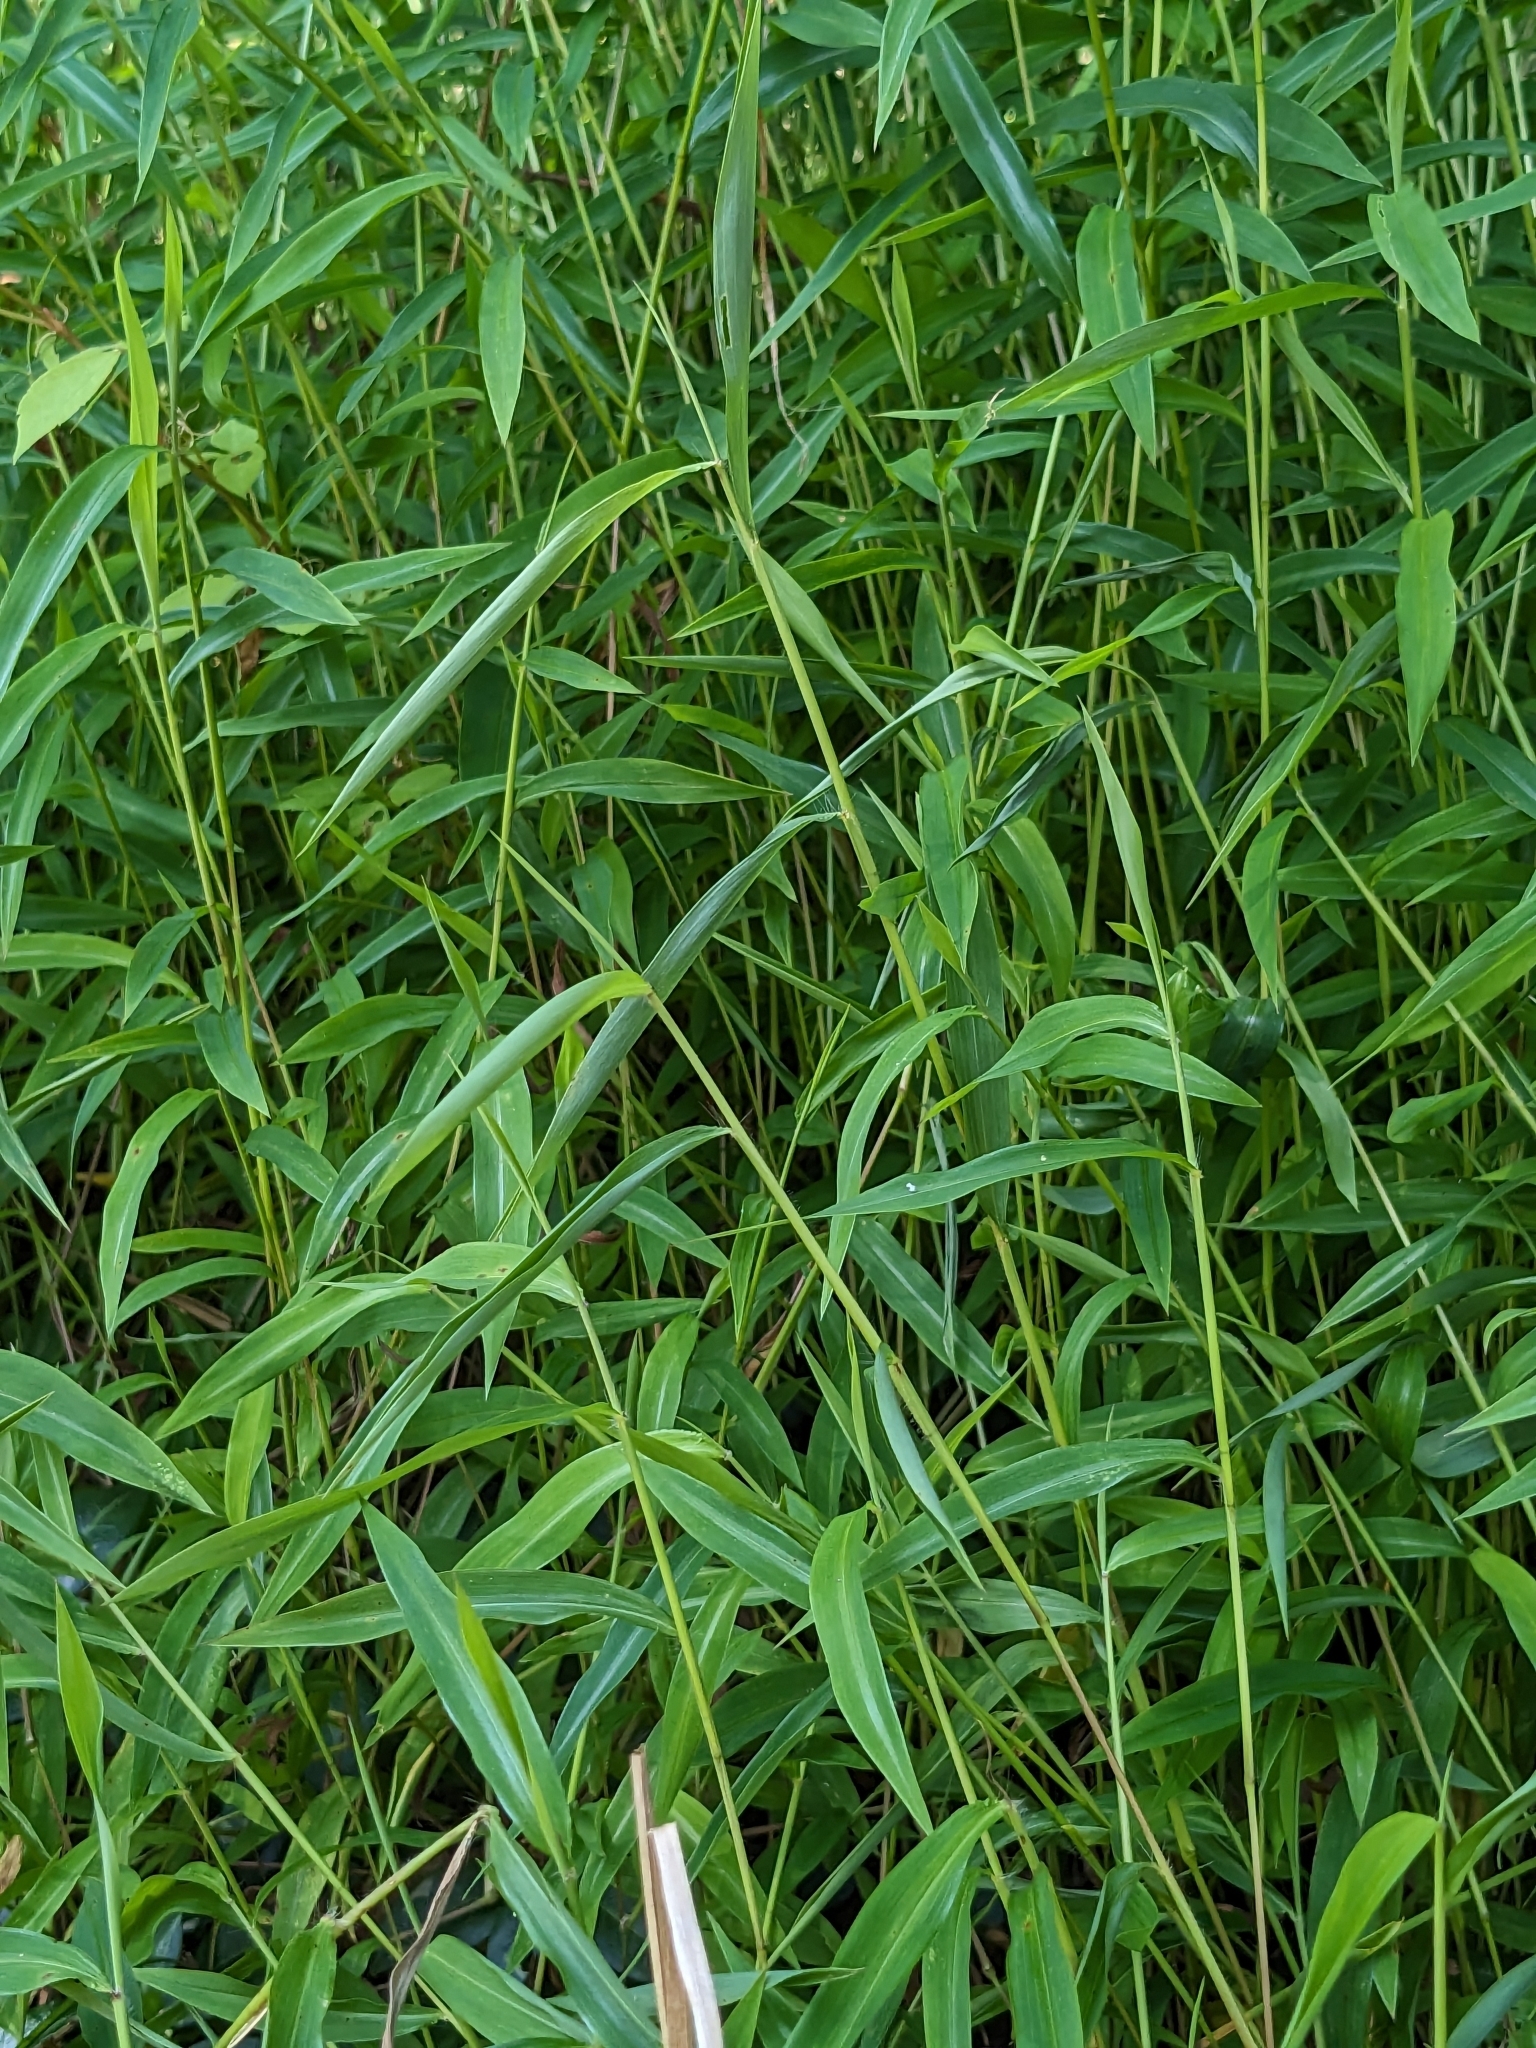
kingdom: Plantae
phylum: Tracheophyta
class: Liliopsida
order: Poales
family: Poaceae
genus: Microstegium
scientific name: Microstegium vimineum
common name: Japanese stiltgrass
